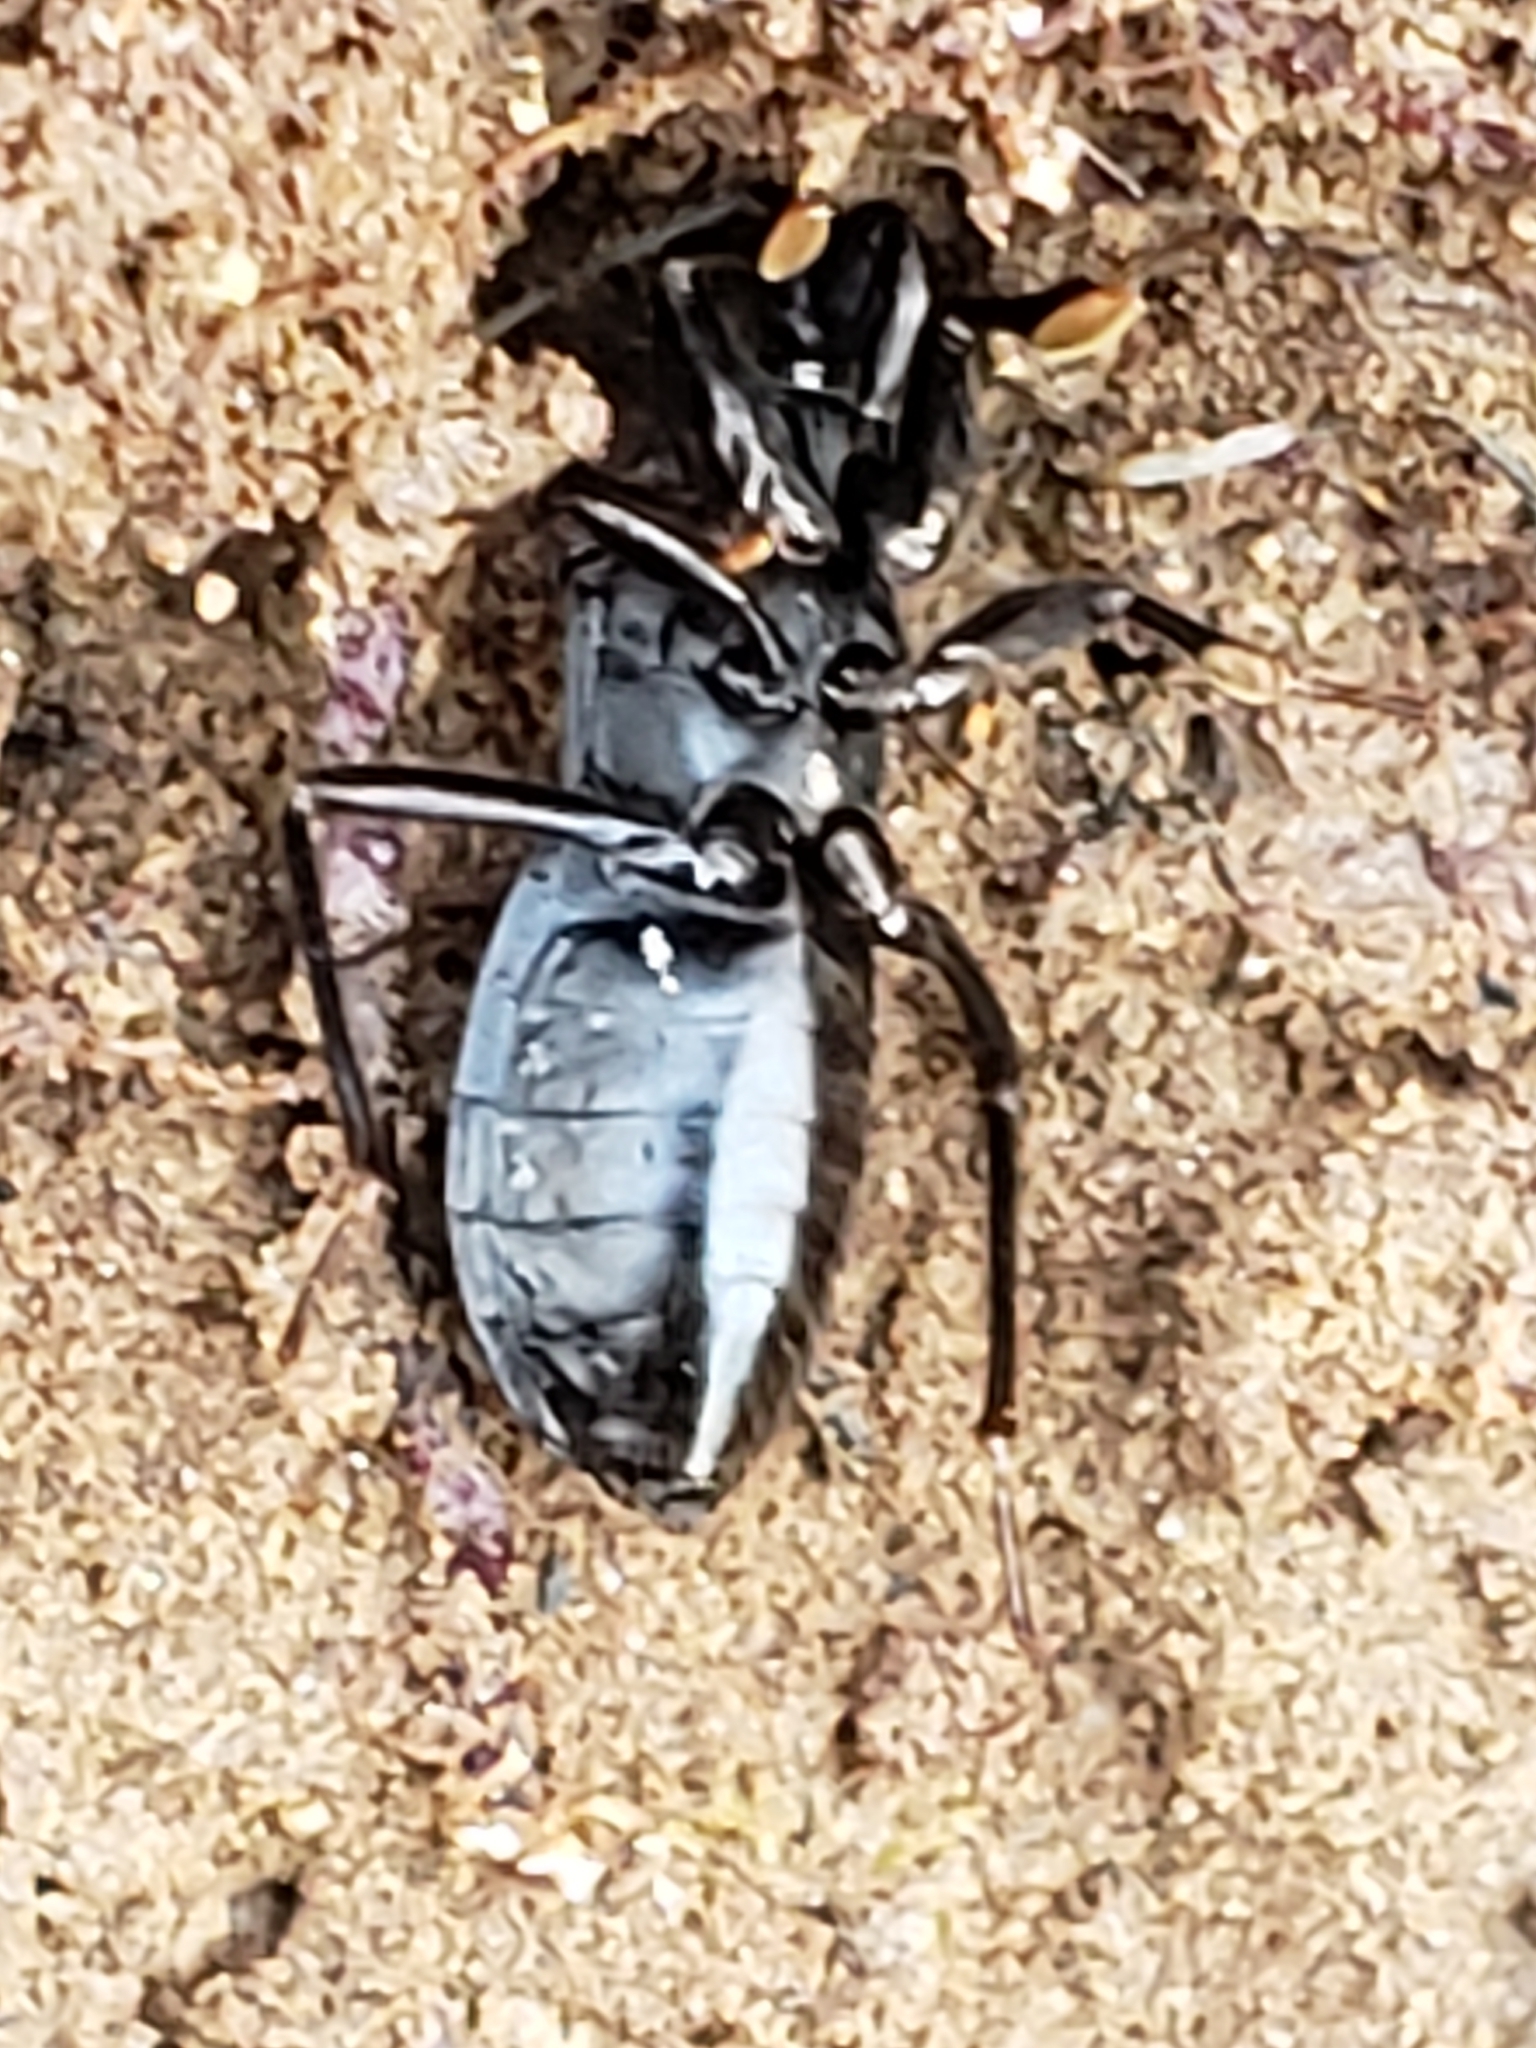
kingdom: Animalia
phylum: Arthropoda
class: Insecta
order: Hemiptera
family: Reduviidae
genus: Melanolestes
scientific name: Melanolestes picipes
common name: Assassin bug
